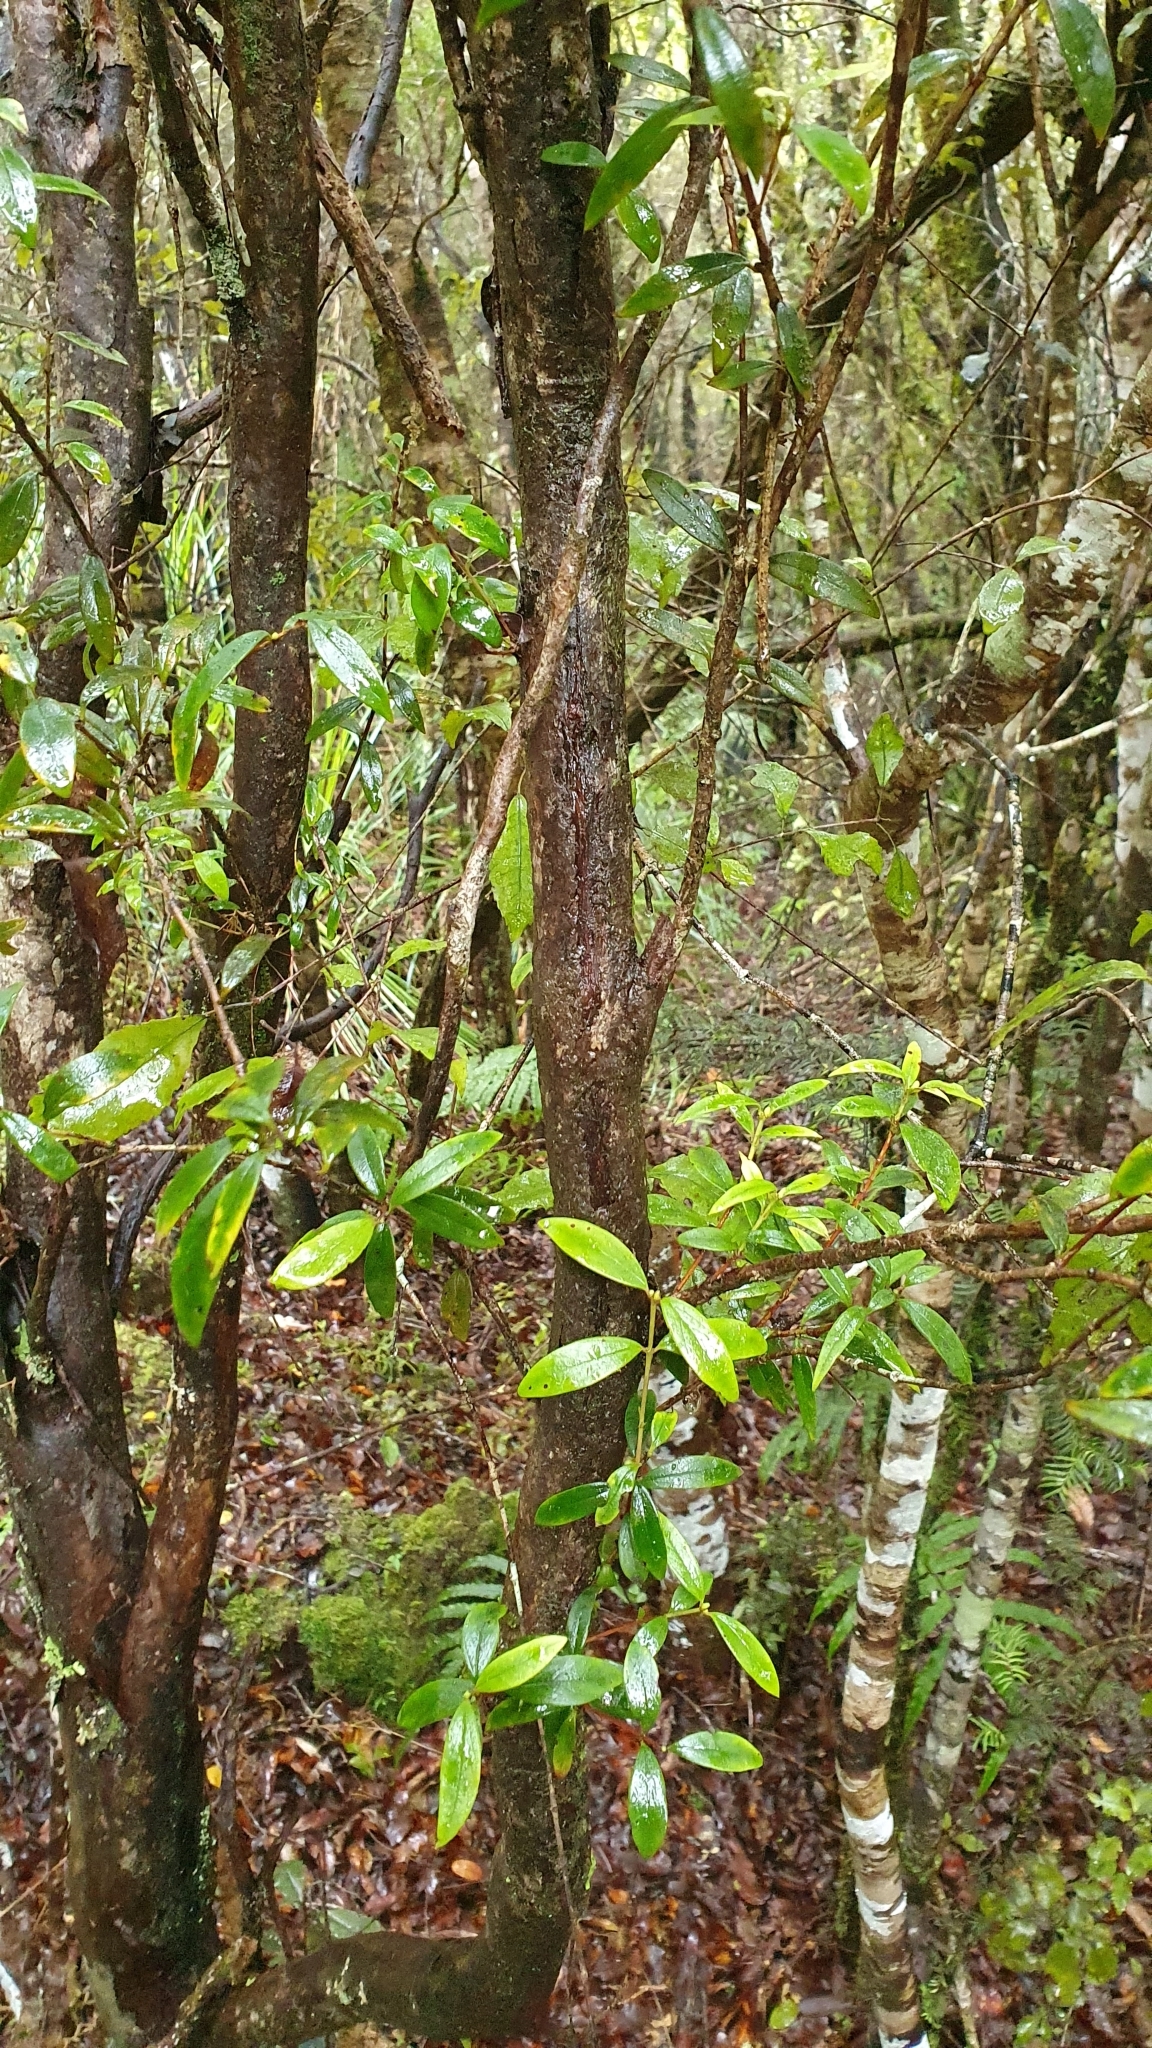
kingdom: Plantae
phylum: Tracheophyta
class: Magnoliopsida
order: Myrtales
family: Myrtaceae
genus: Metrosideros
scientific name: Metrosideros umbellata
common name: Southern rata
